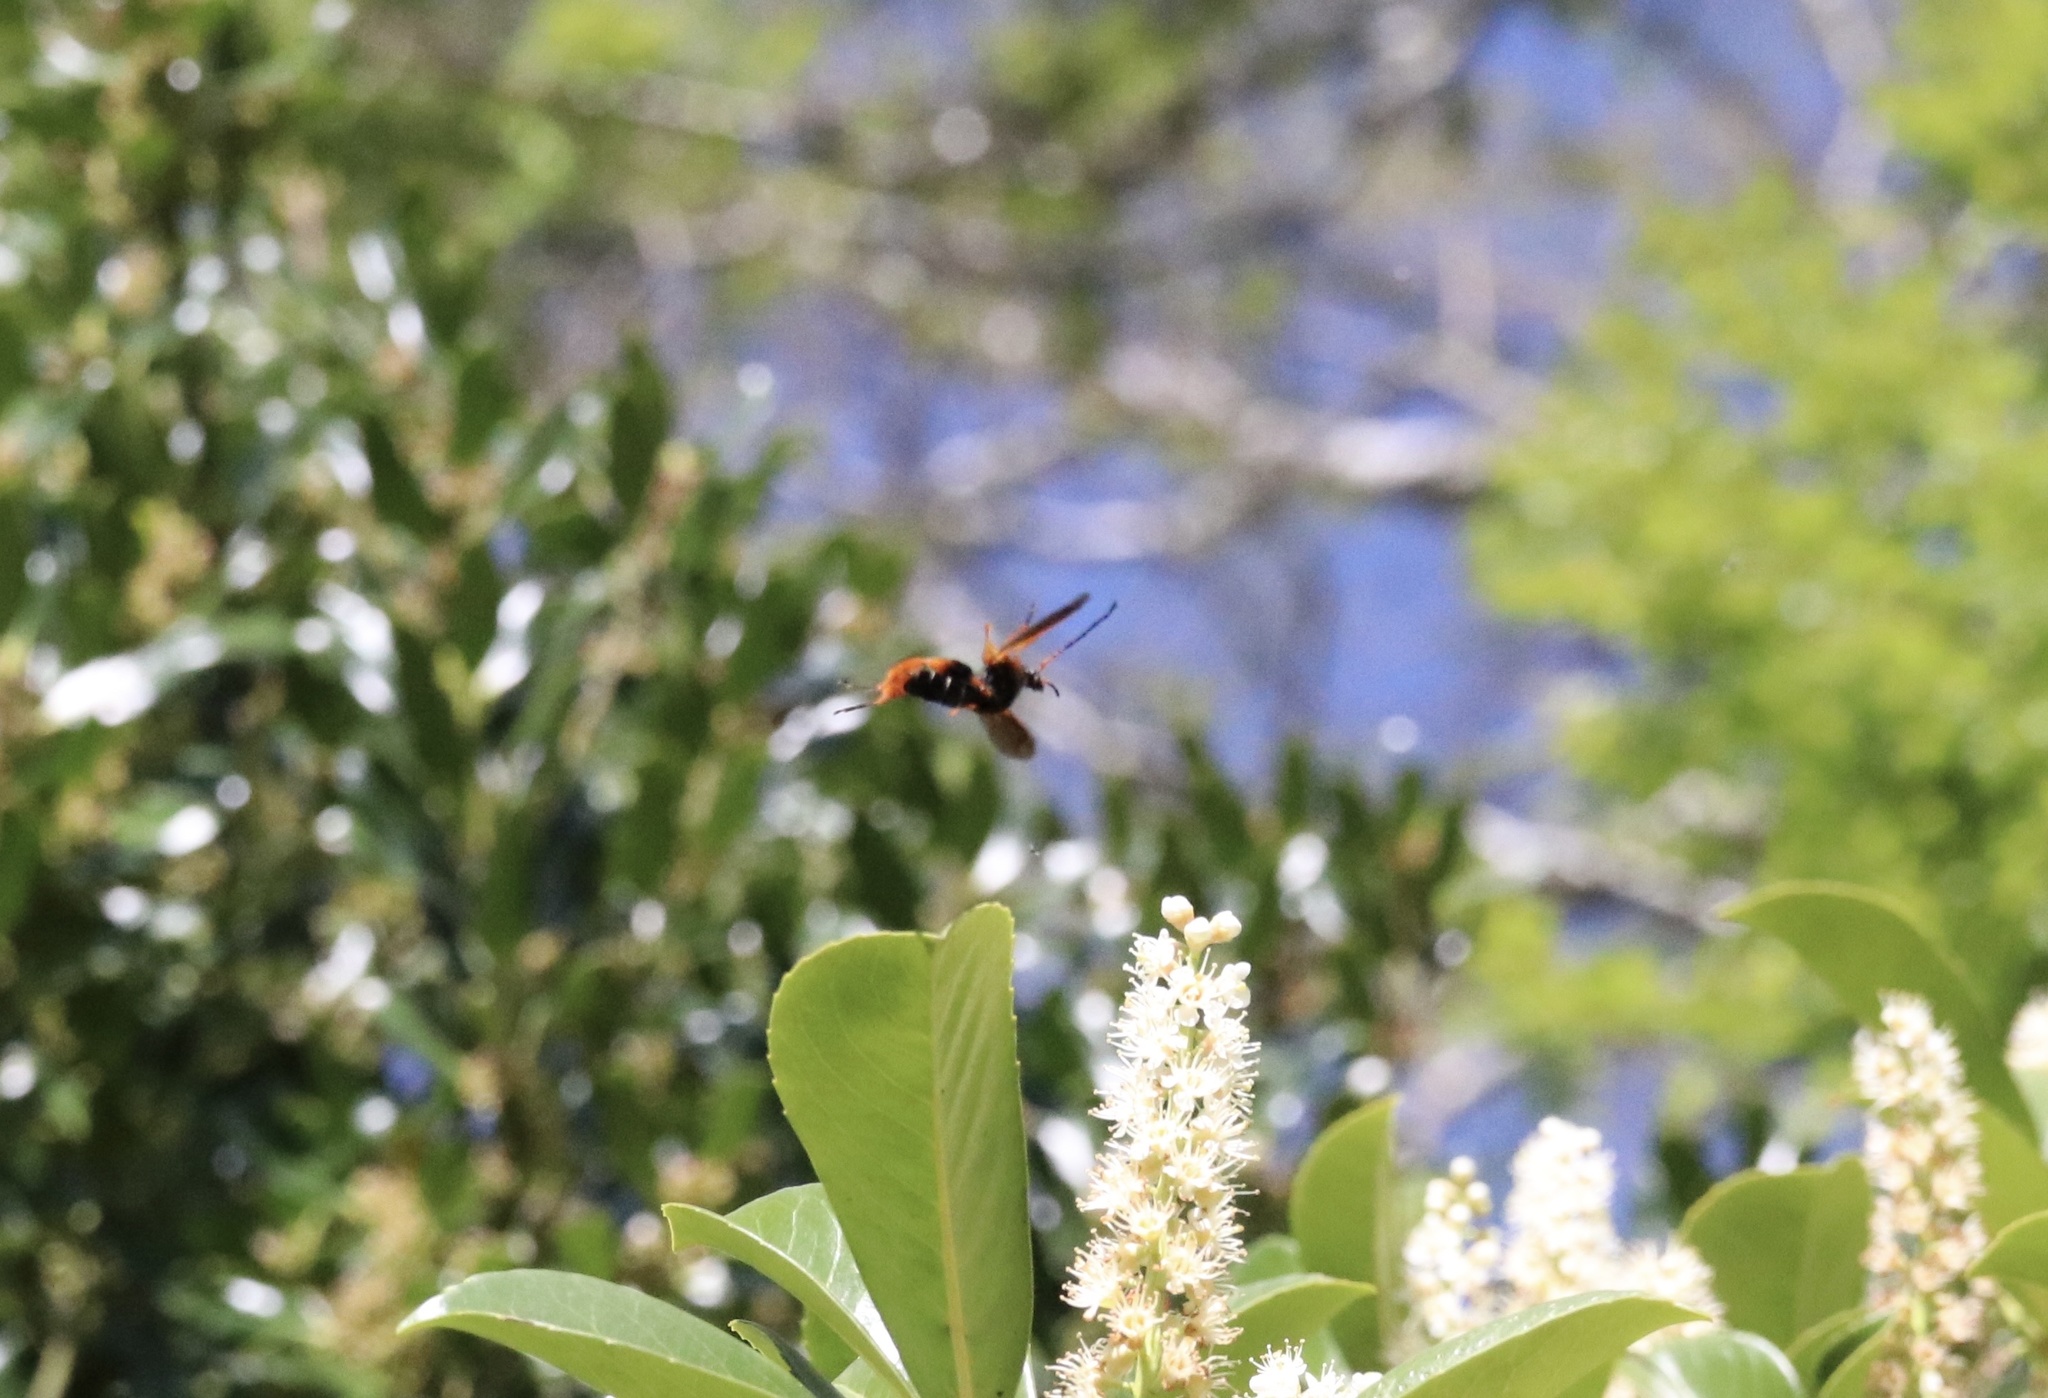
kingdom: Animalia
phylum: Arthropoda
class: Insecta
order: Coleoptera
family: Cerambycidae
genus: Callisphyris
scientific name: Callisphyris macropus
